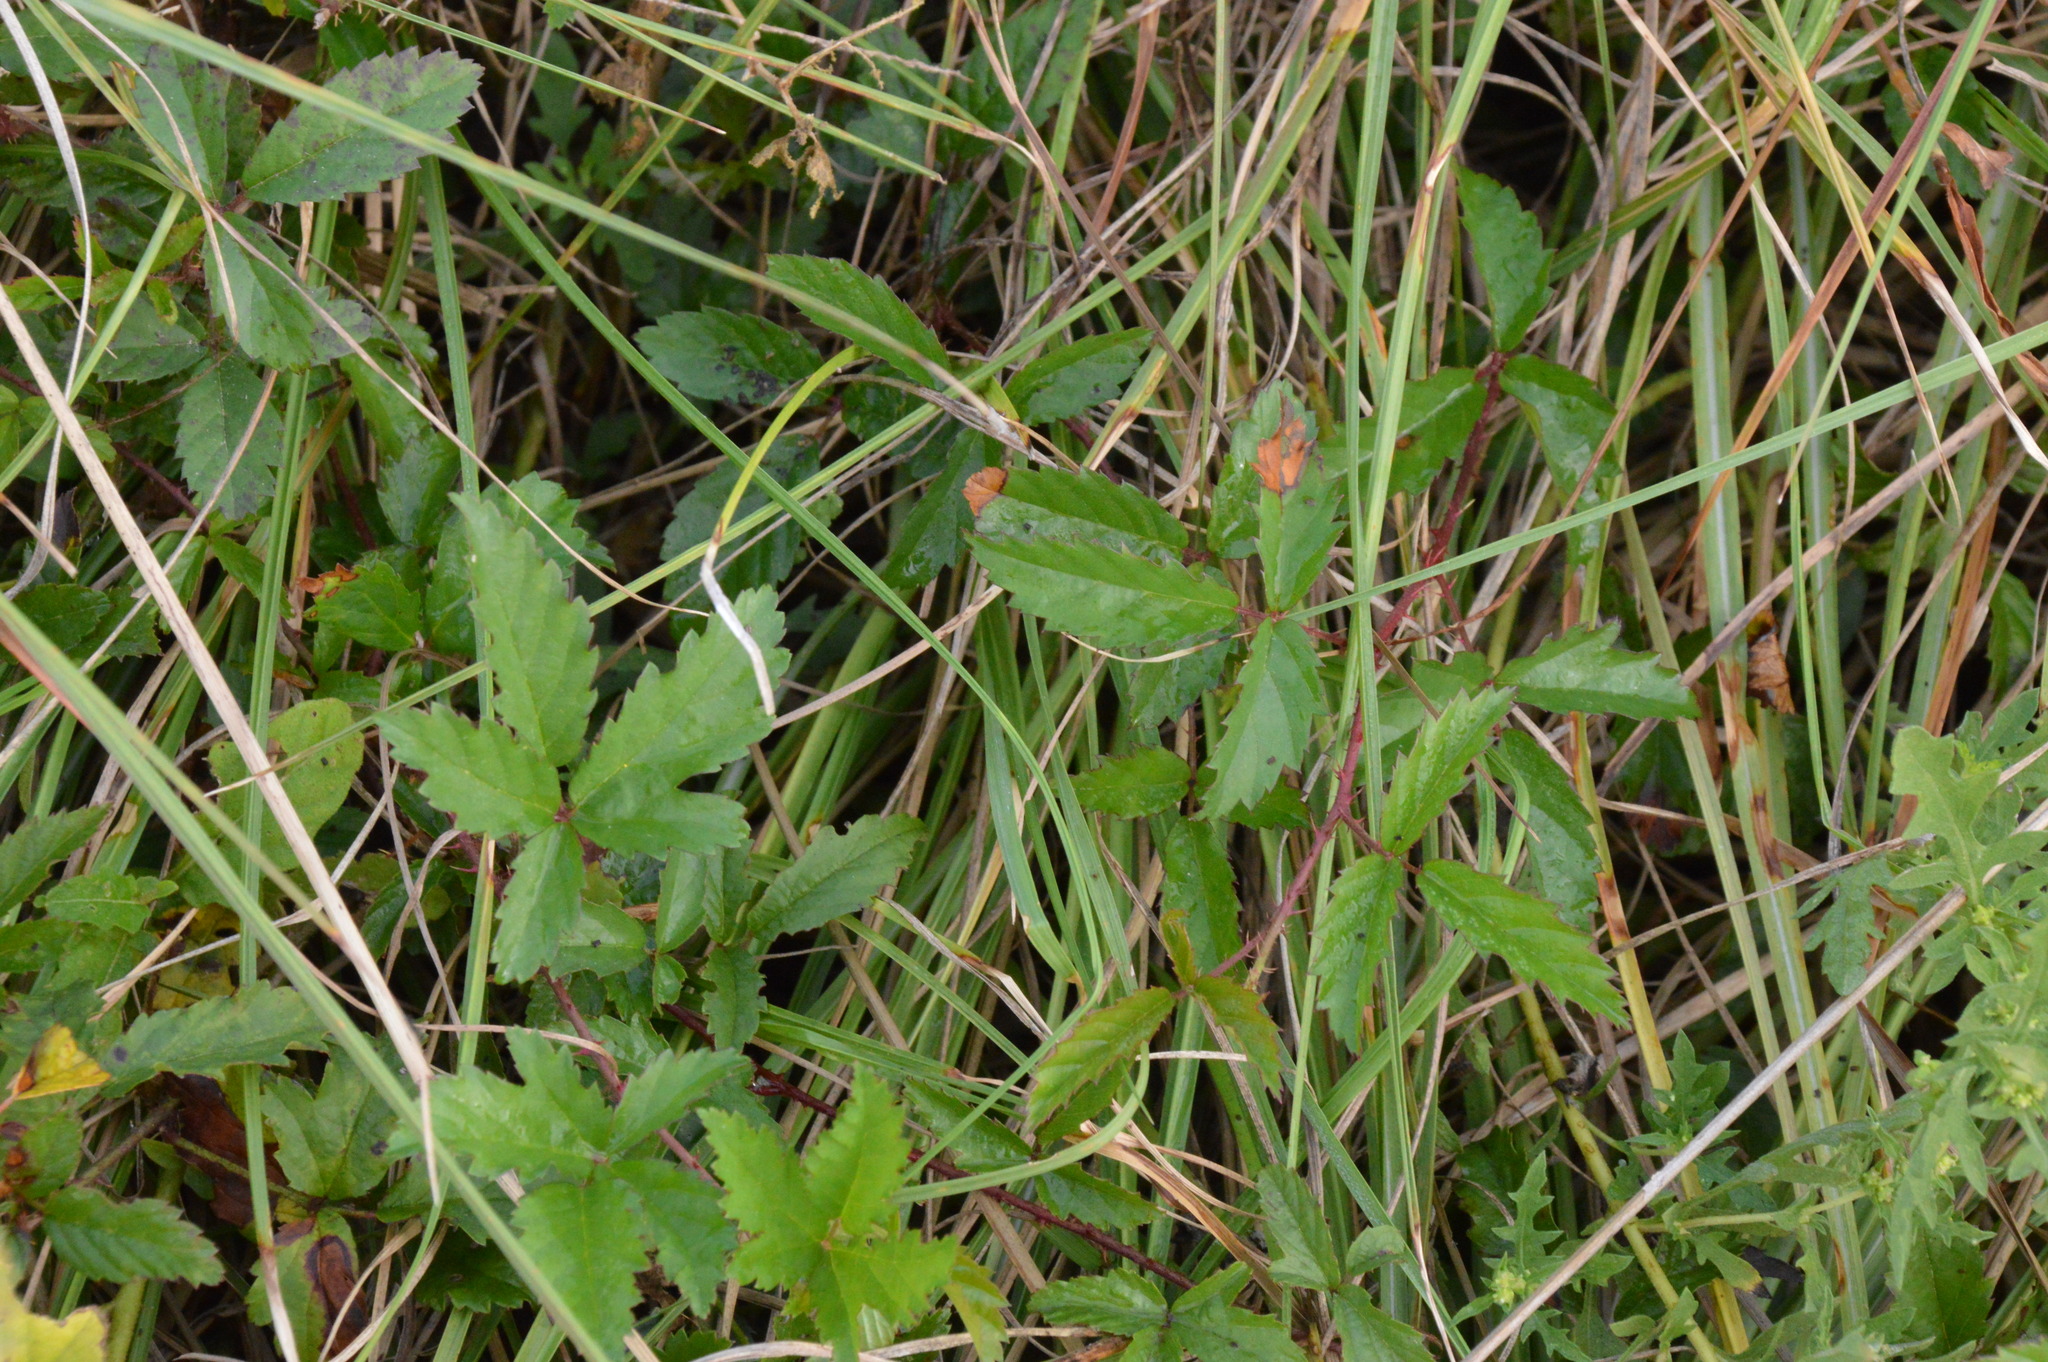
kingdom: Plantae
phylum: Tracheophyta
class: Magnoliopsida
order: Rosales
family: Rosaceae
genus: Rubus
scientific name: Rubus trivialis
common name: Southern dewberry
